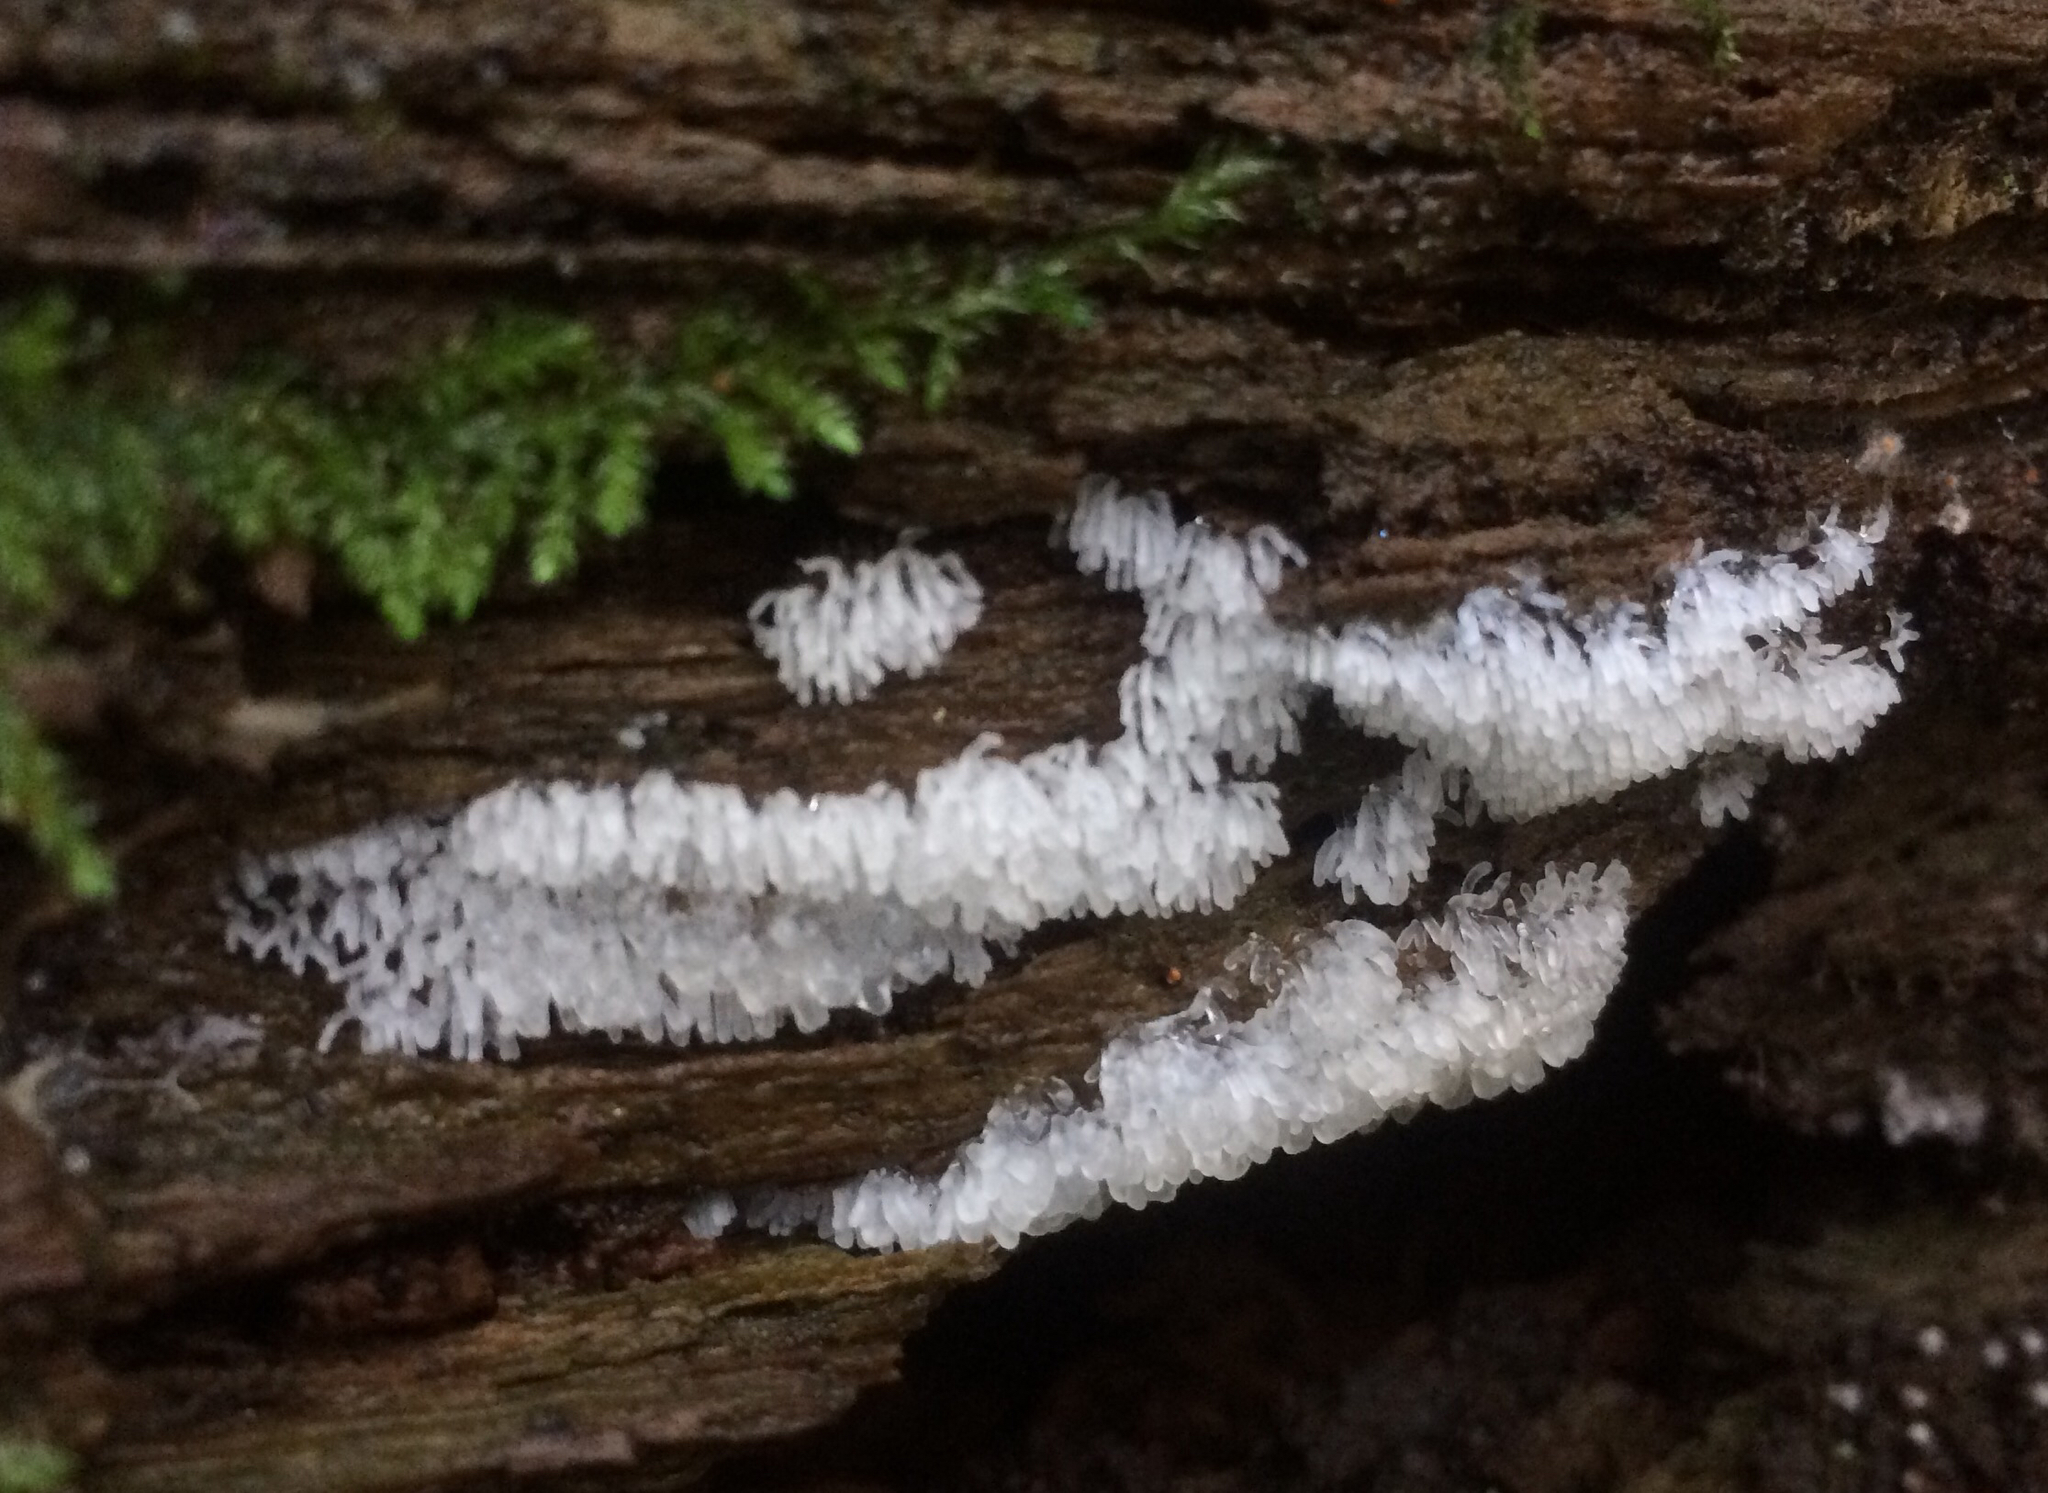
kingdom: Protozoa
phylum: Mycetozoa
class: Protosteliomycetes
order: Ceratiomyxales
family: Ceratiomyxaceae
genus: Ceratiomyxa
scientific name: Ceratiomyxa fruticulosa
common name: Honeycomb coral slime mold
